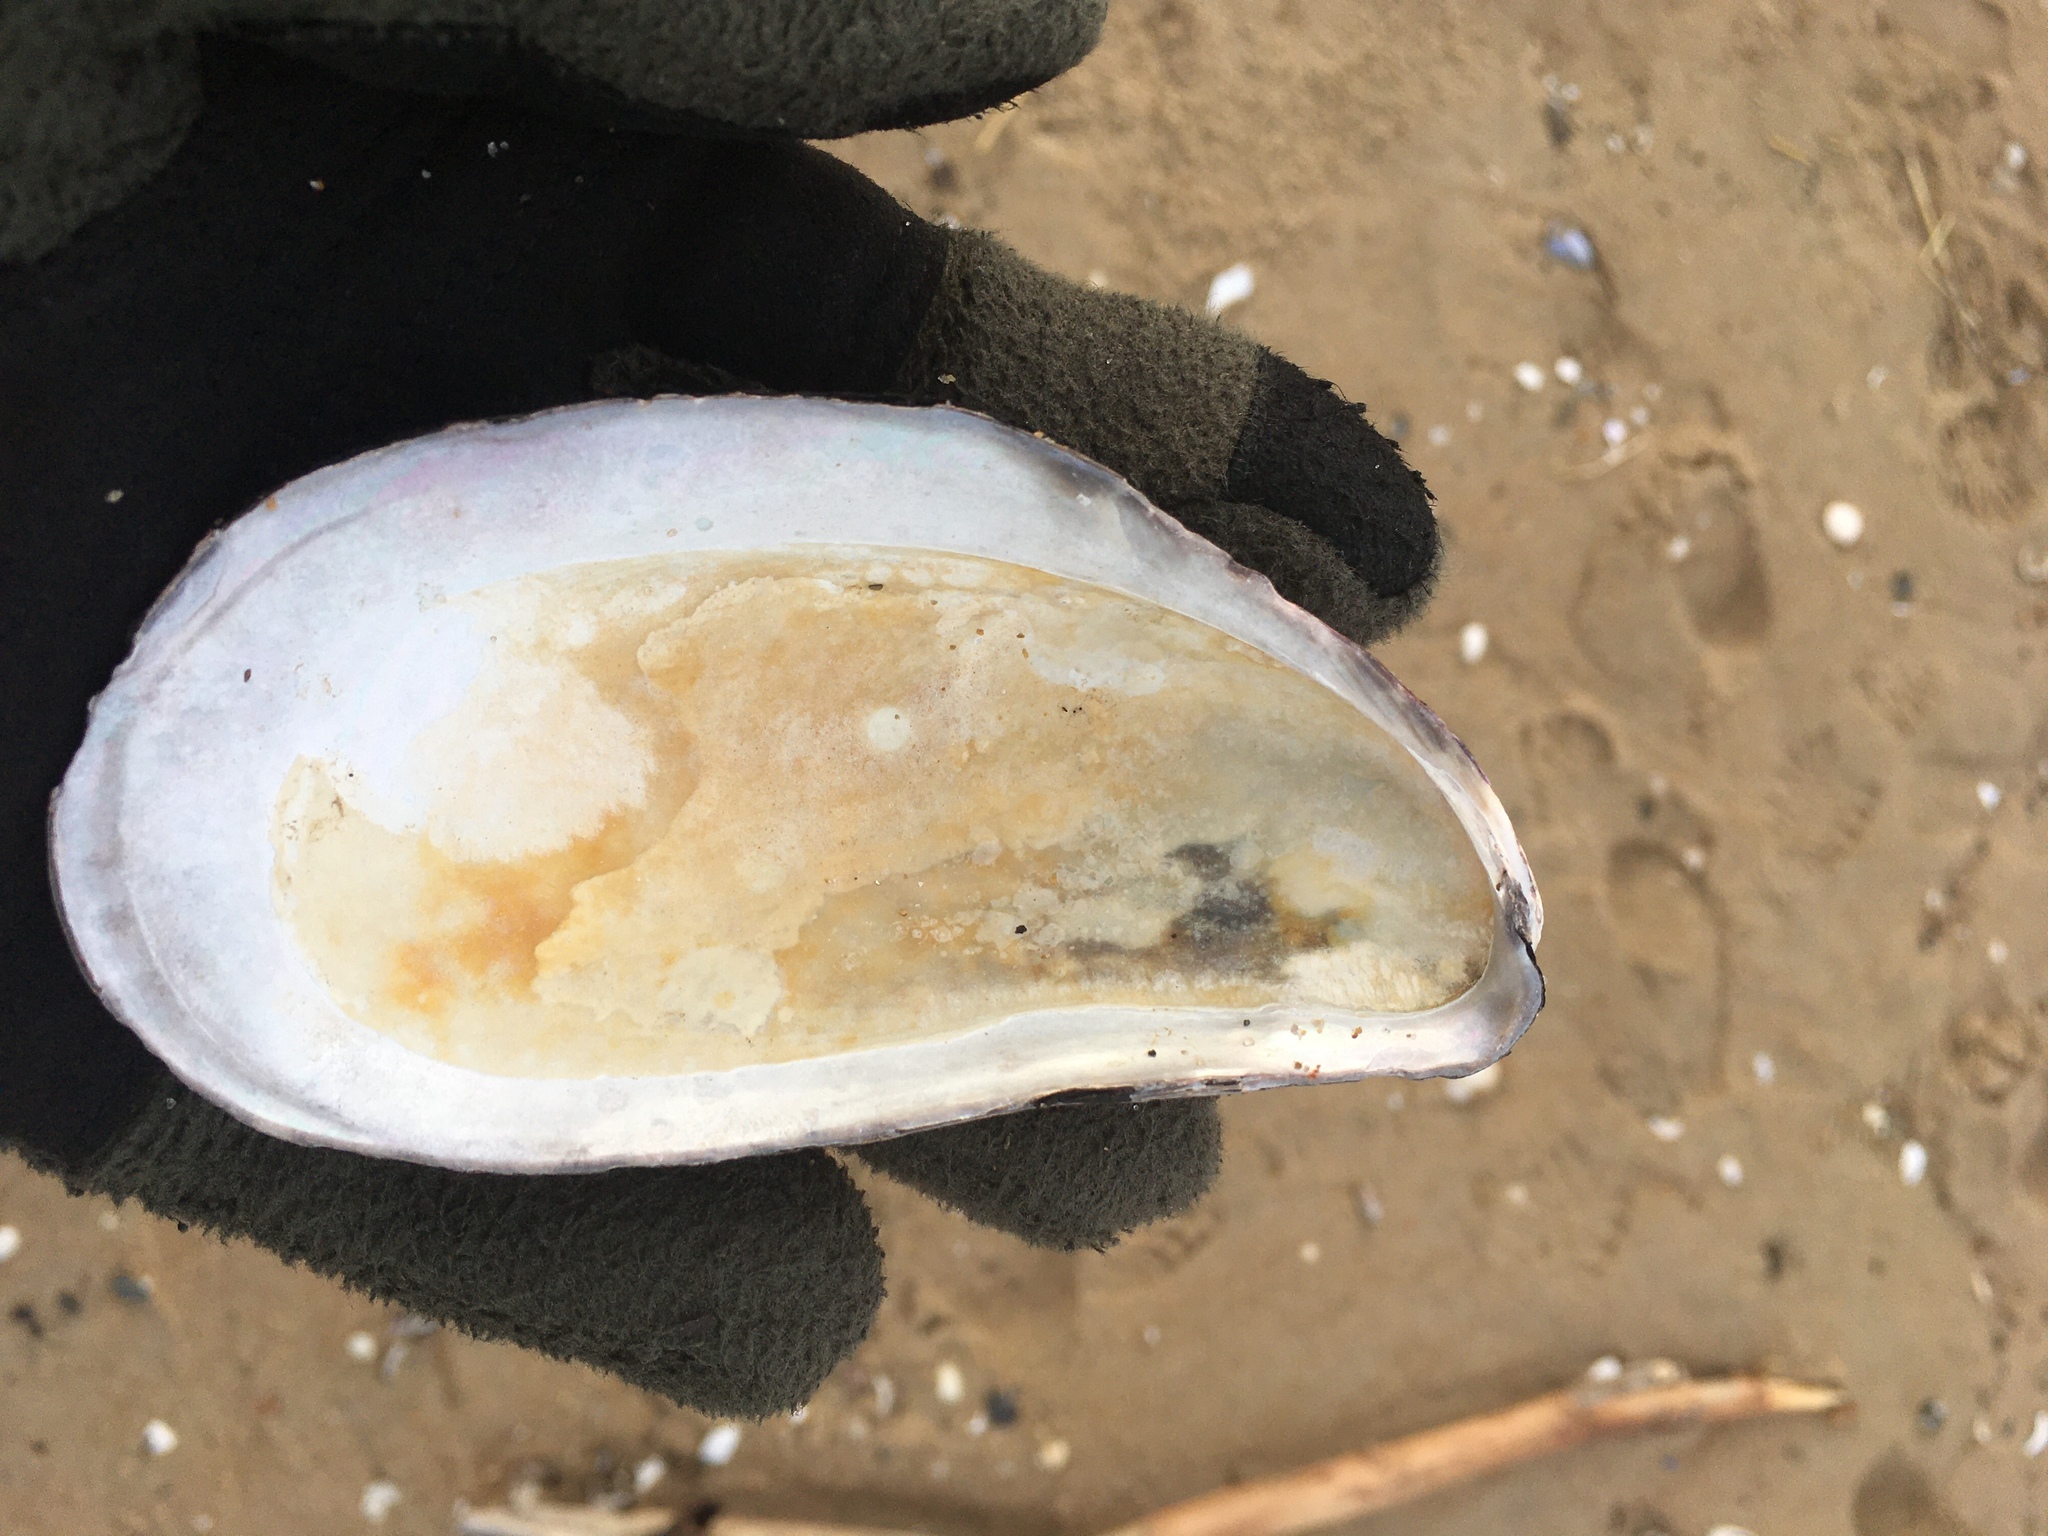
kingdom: Animalia
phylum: Mollusca
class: Bivalvia
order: Mytilida
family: Mytilidae
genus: Modiolus
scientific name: Modiolus modiolus
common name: Horse-mussel
